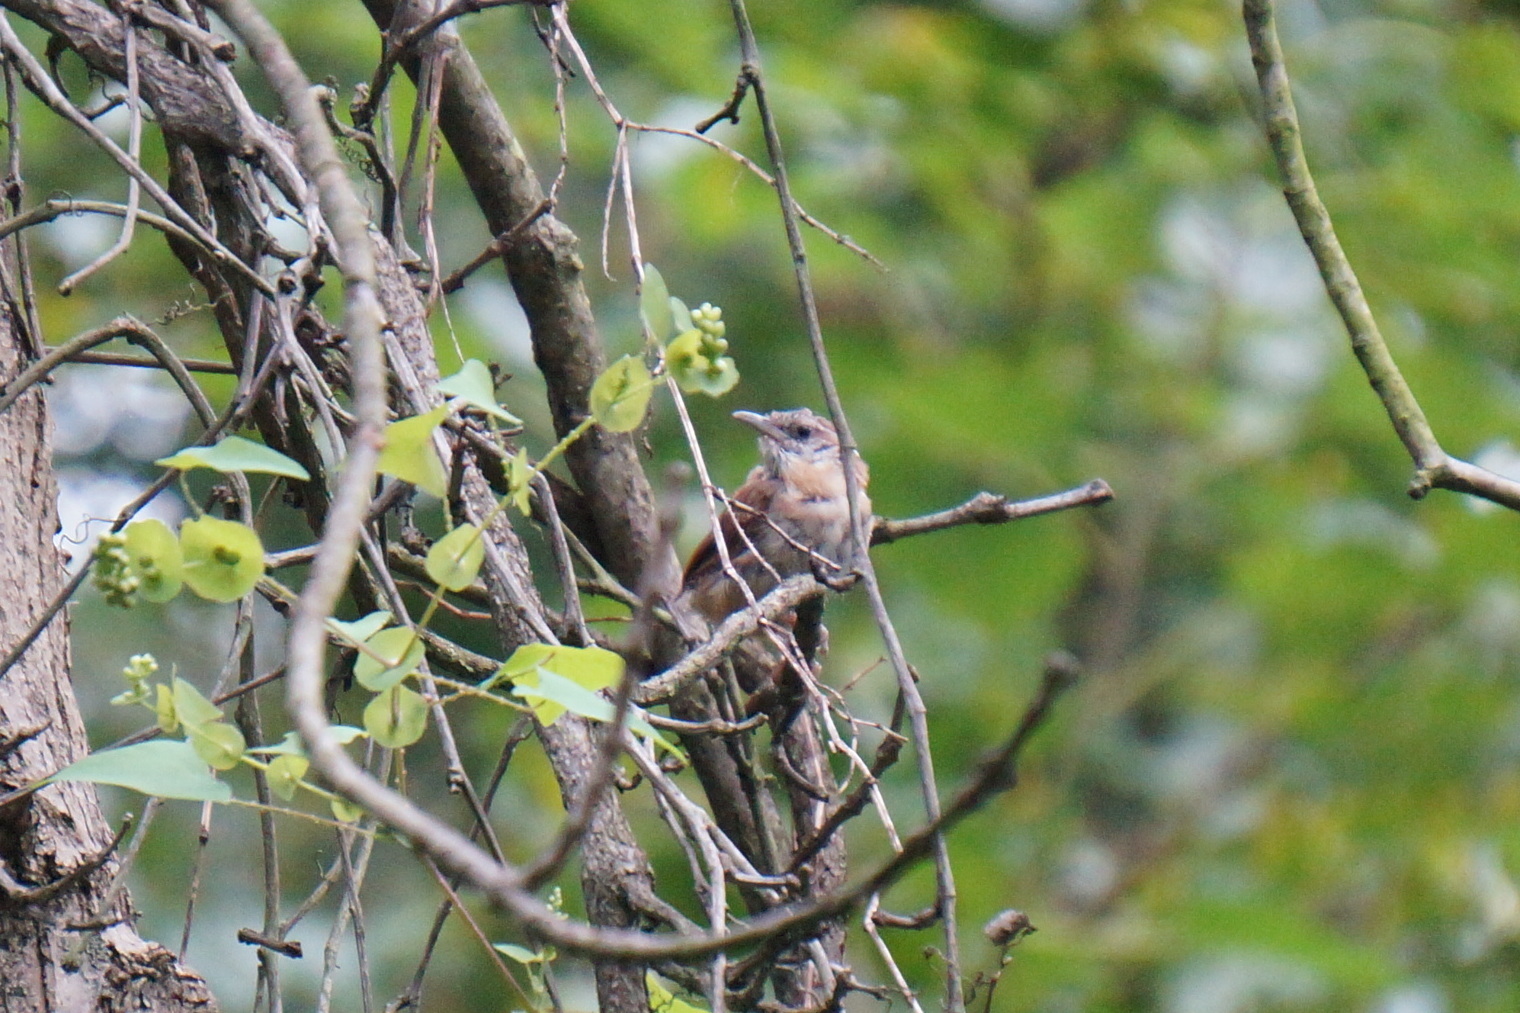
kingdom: Animalia
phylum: Chordata
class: Aves
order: Passeriformes
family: Troglodytidae
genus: Thryothorus
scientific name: Thryothorus ludovicianus
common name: Carolina wren
